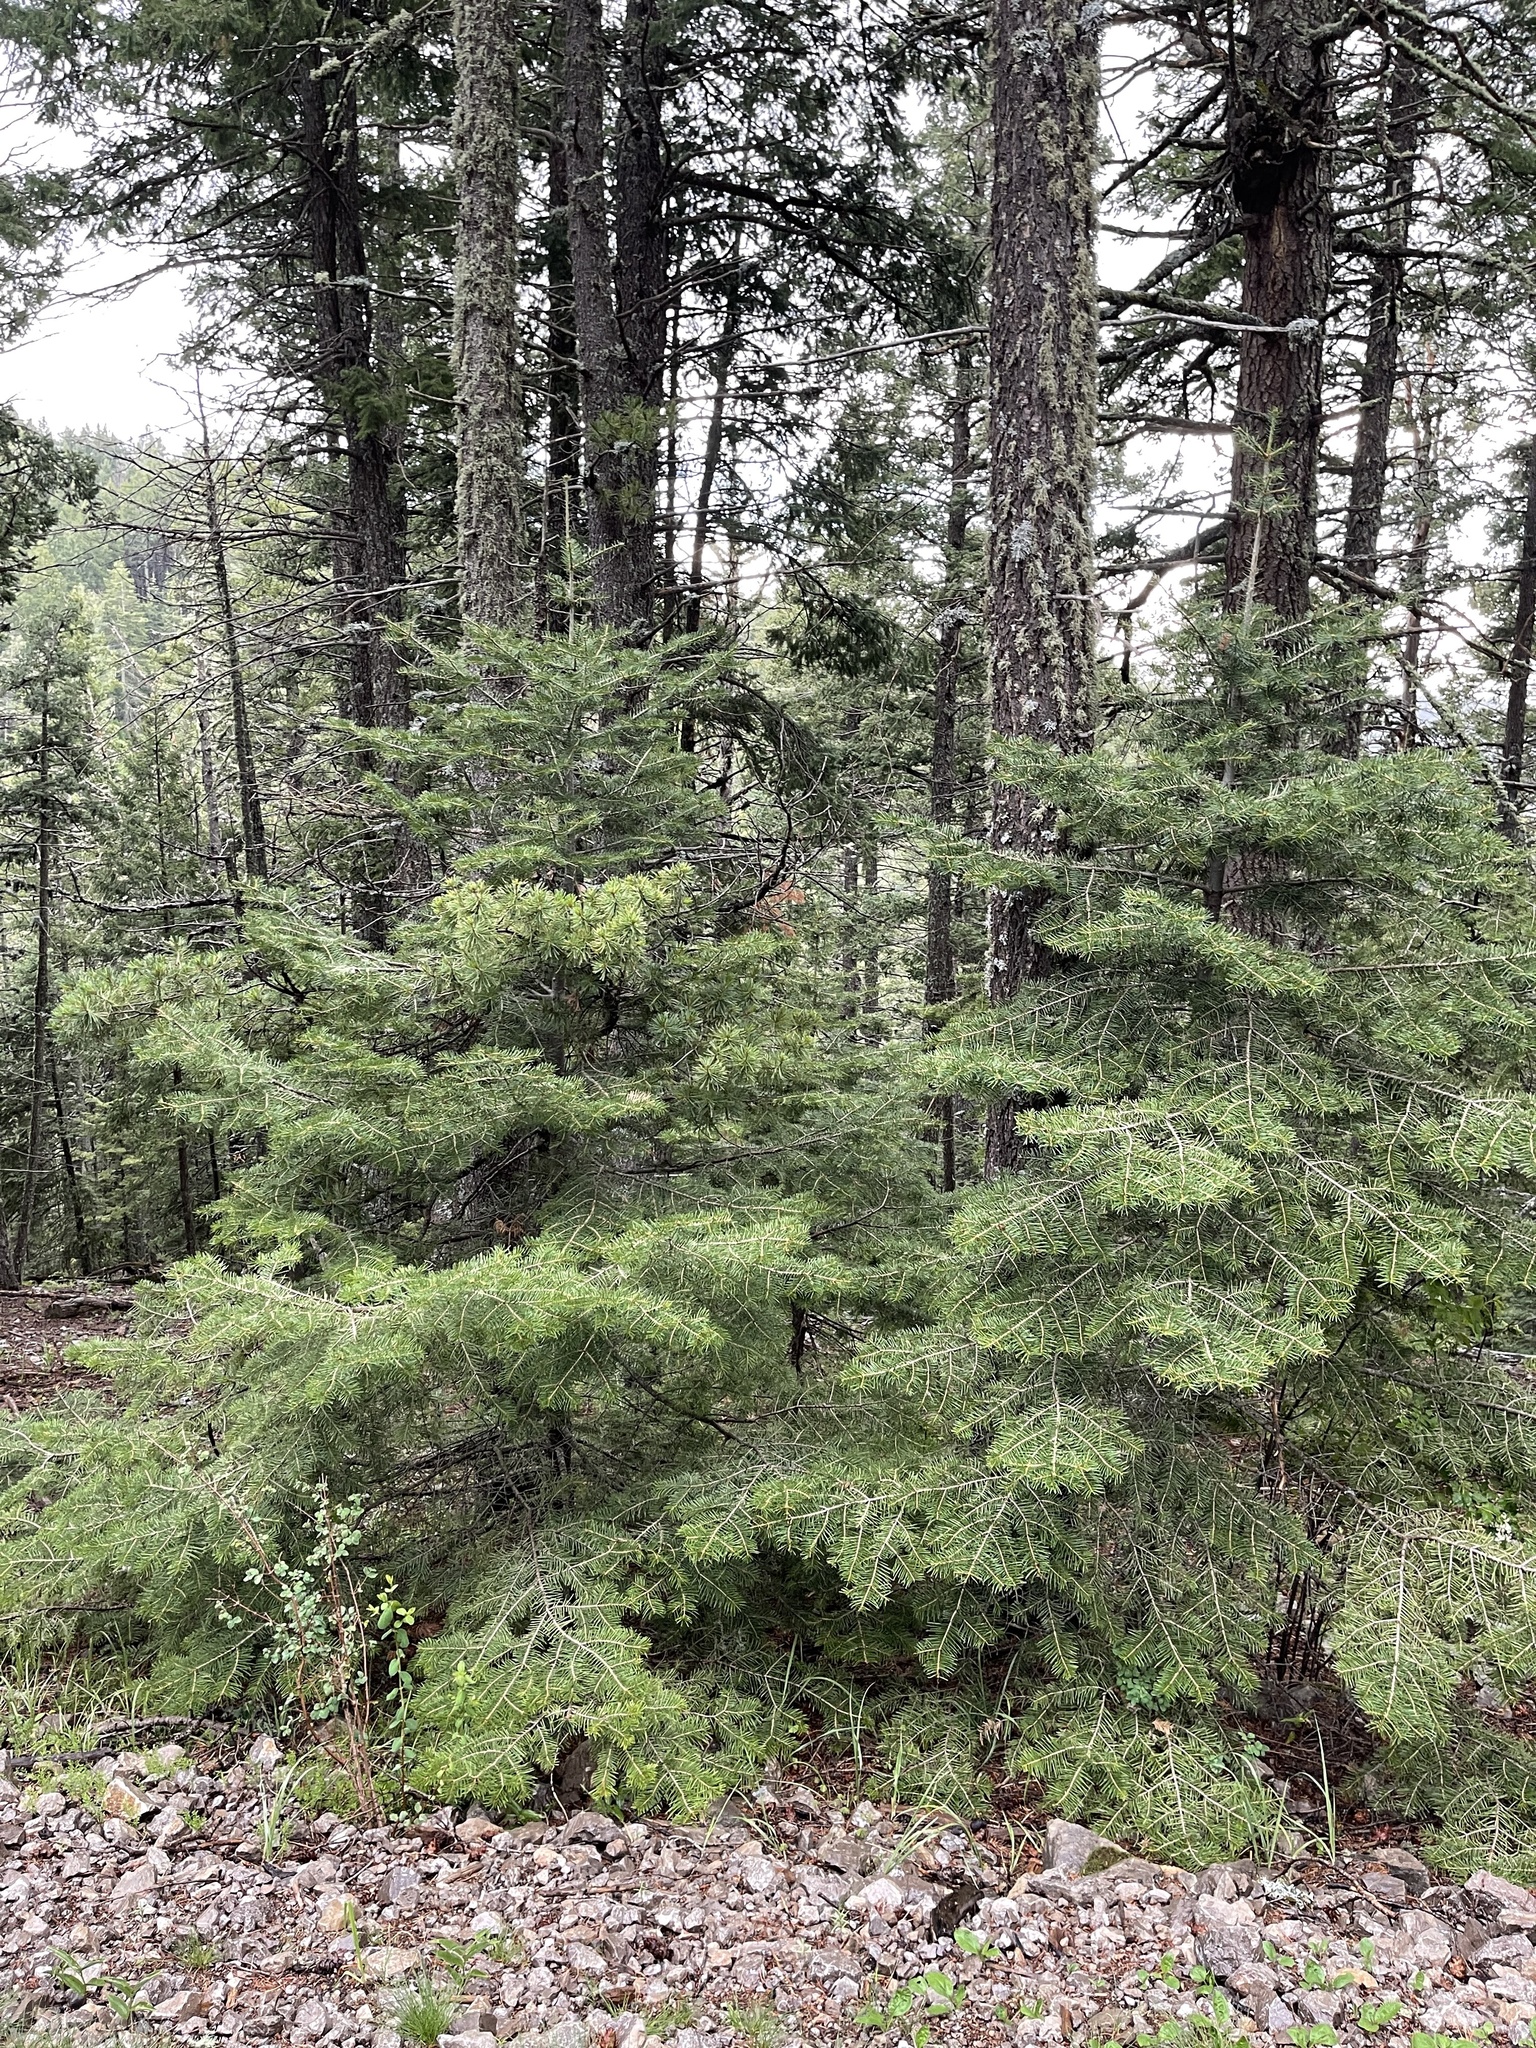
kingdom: Plantae
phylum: Tracheophyta
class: Pinopsida
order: Pinales
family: Pinaceae
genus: Abies
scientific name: Abies concolor
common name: Colorado fir
